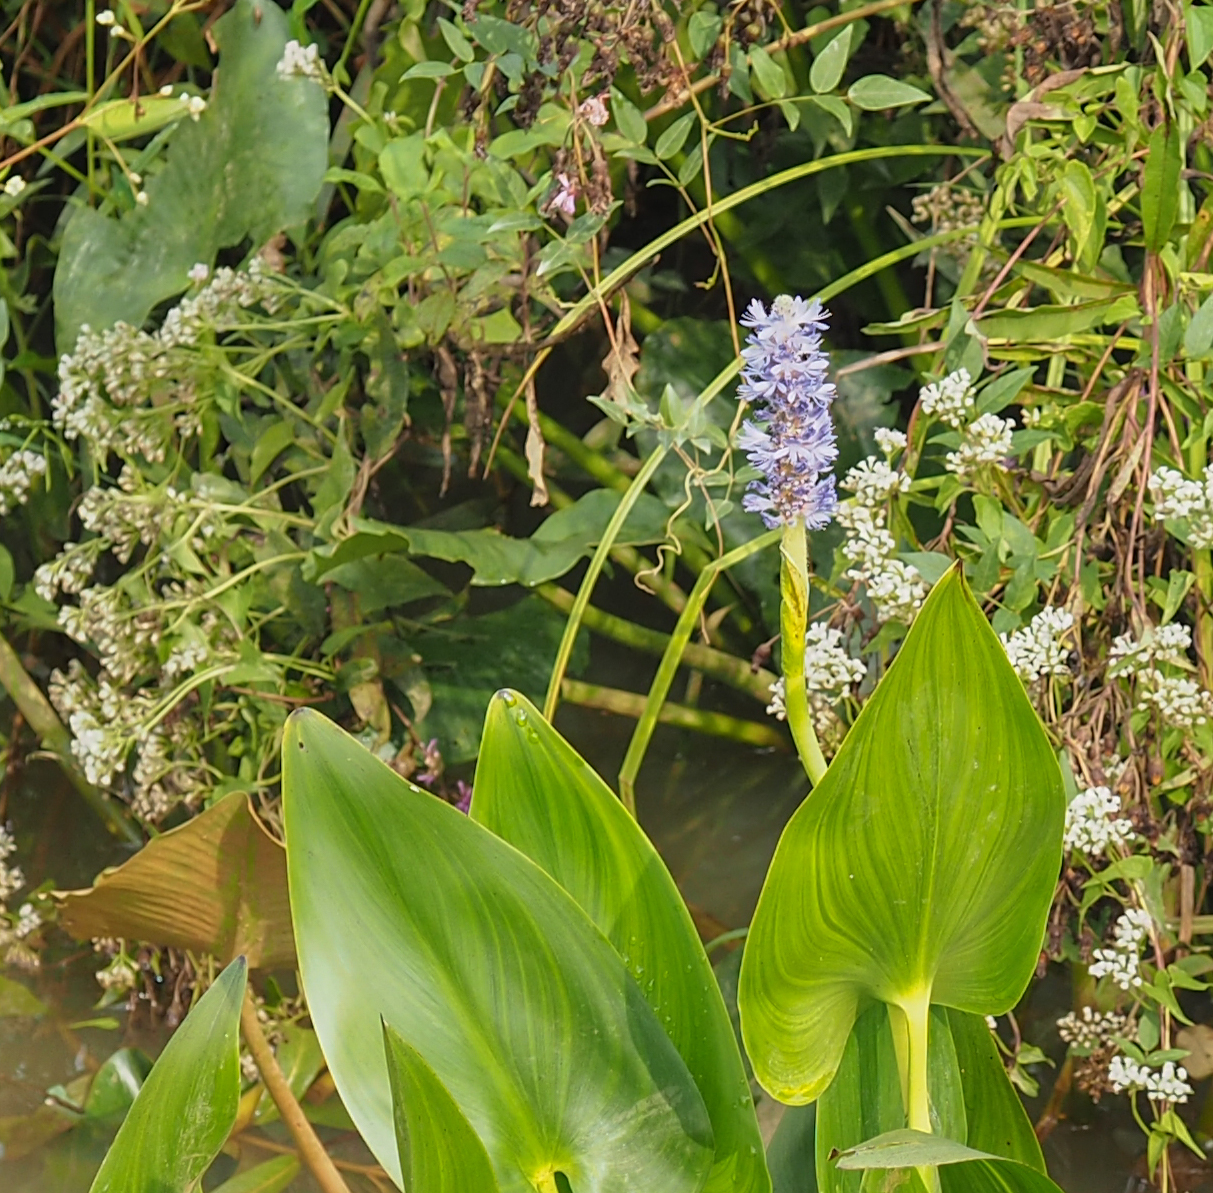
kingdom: Plantae
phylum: Tracheophyta
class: Liliopsida
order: Commelinales
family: Pontederiaceae
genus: Pontederia
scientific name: Pontederia cordata
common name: Pickerelweed
